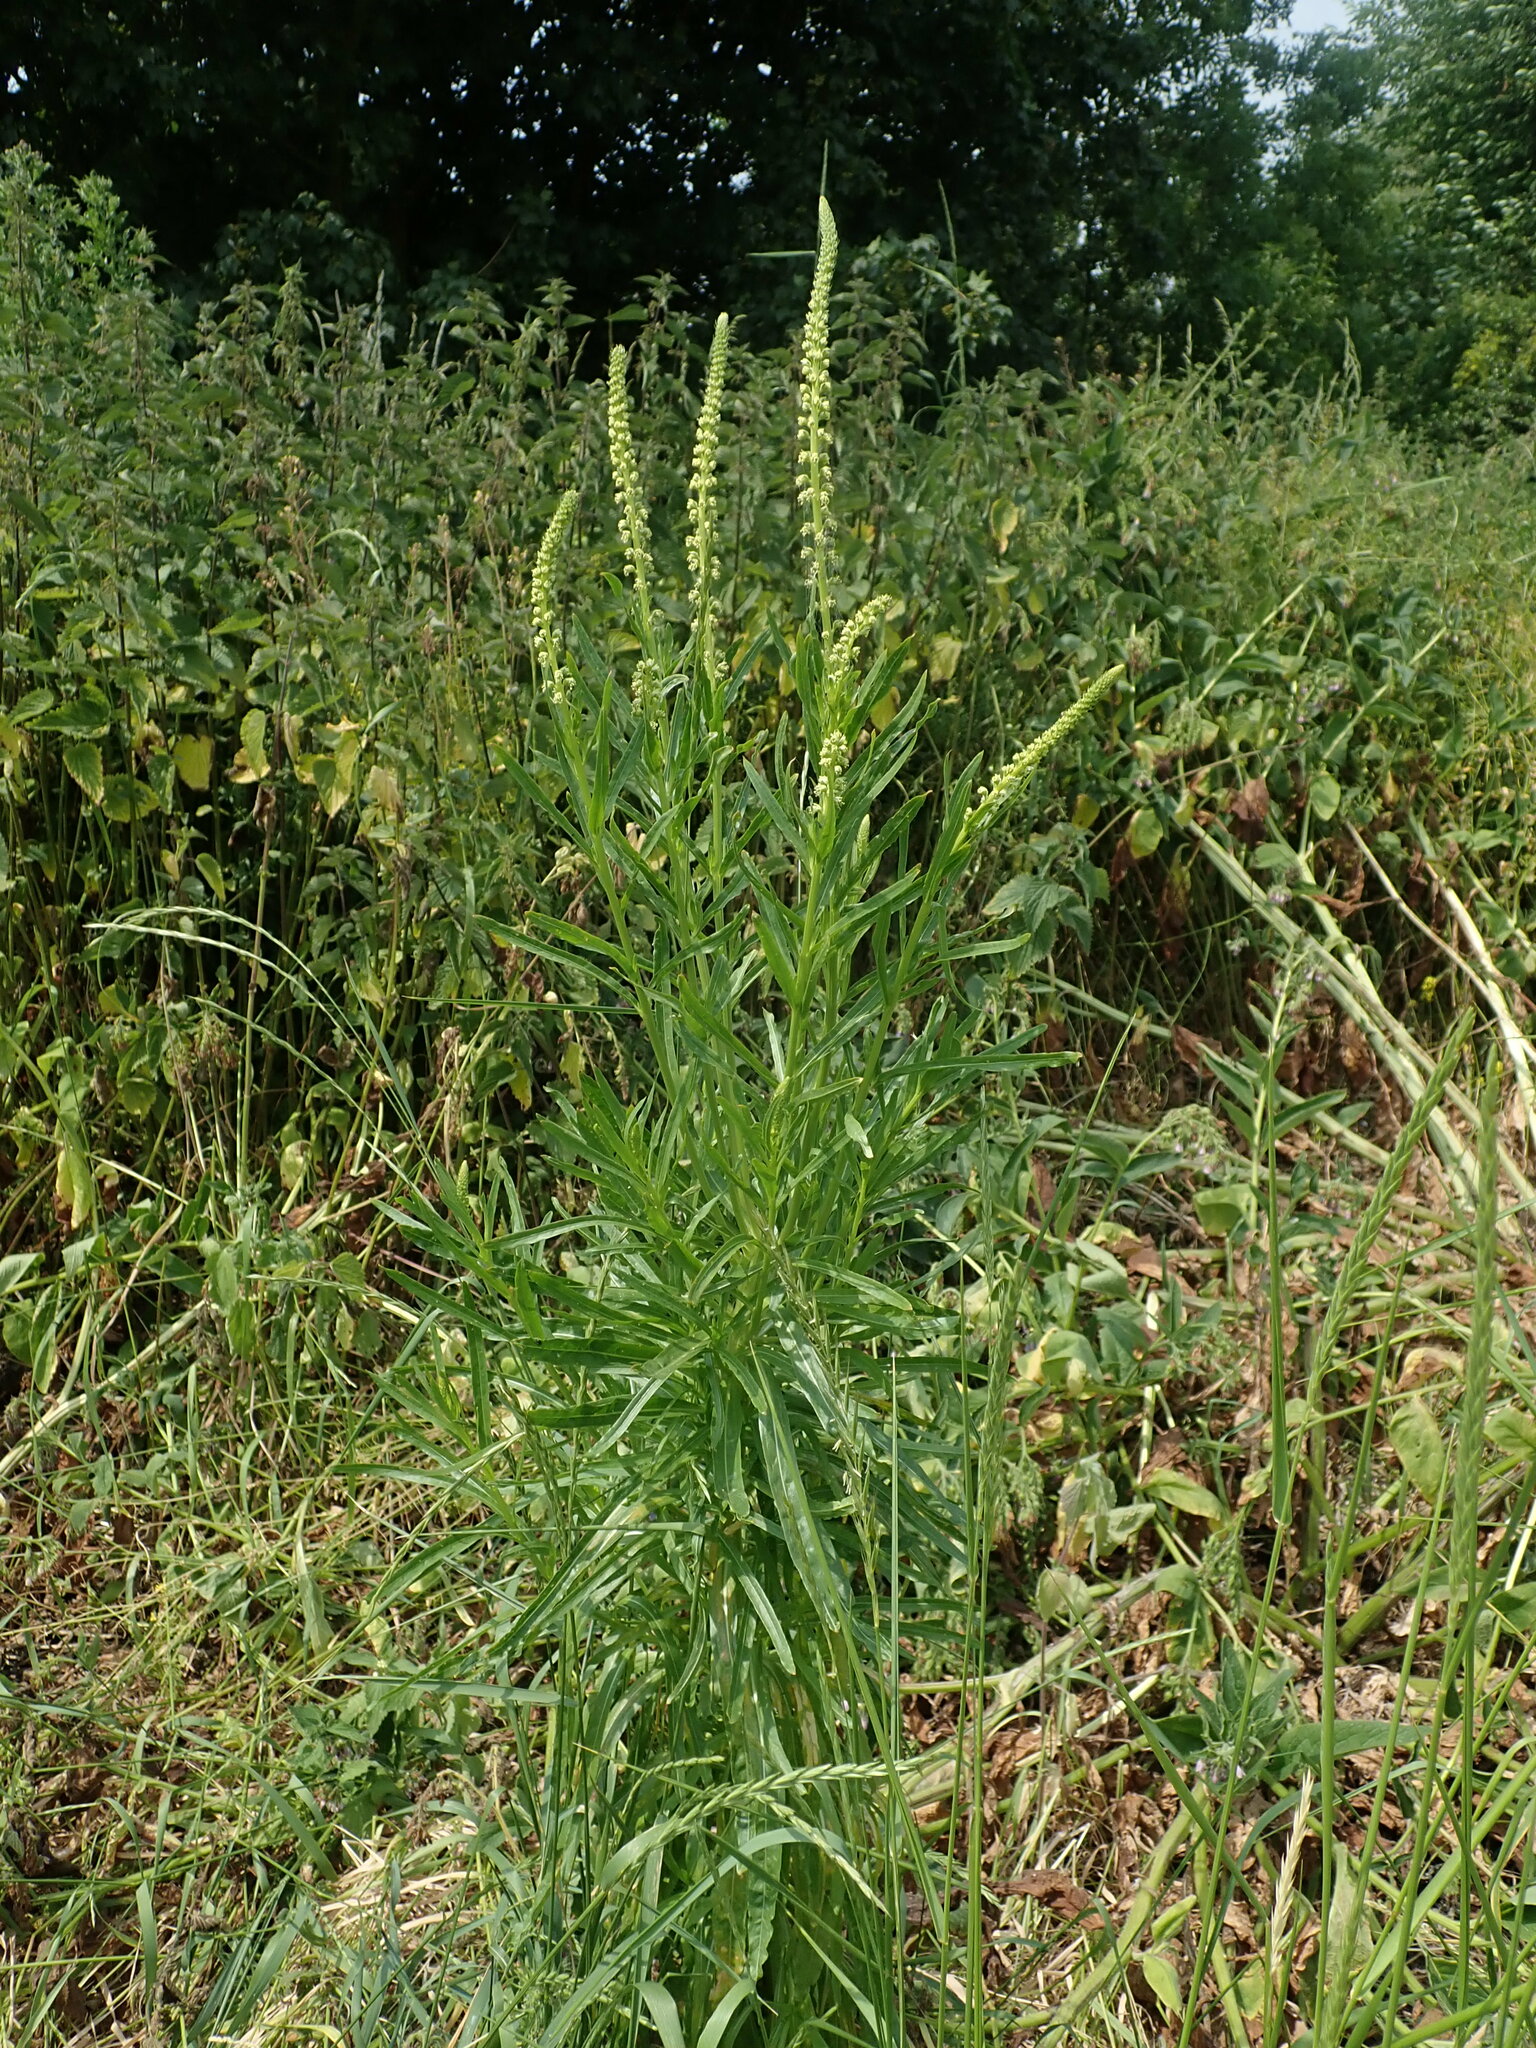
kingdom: Plantae
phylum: Tracheophyta
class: Magnoliopsida
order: Brassicales
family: Resedaceae
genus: Reseda
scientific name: Reseda luteola
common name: Weld
